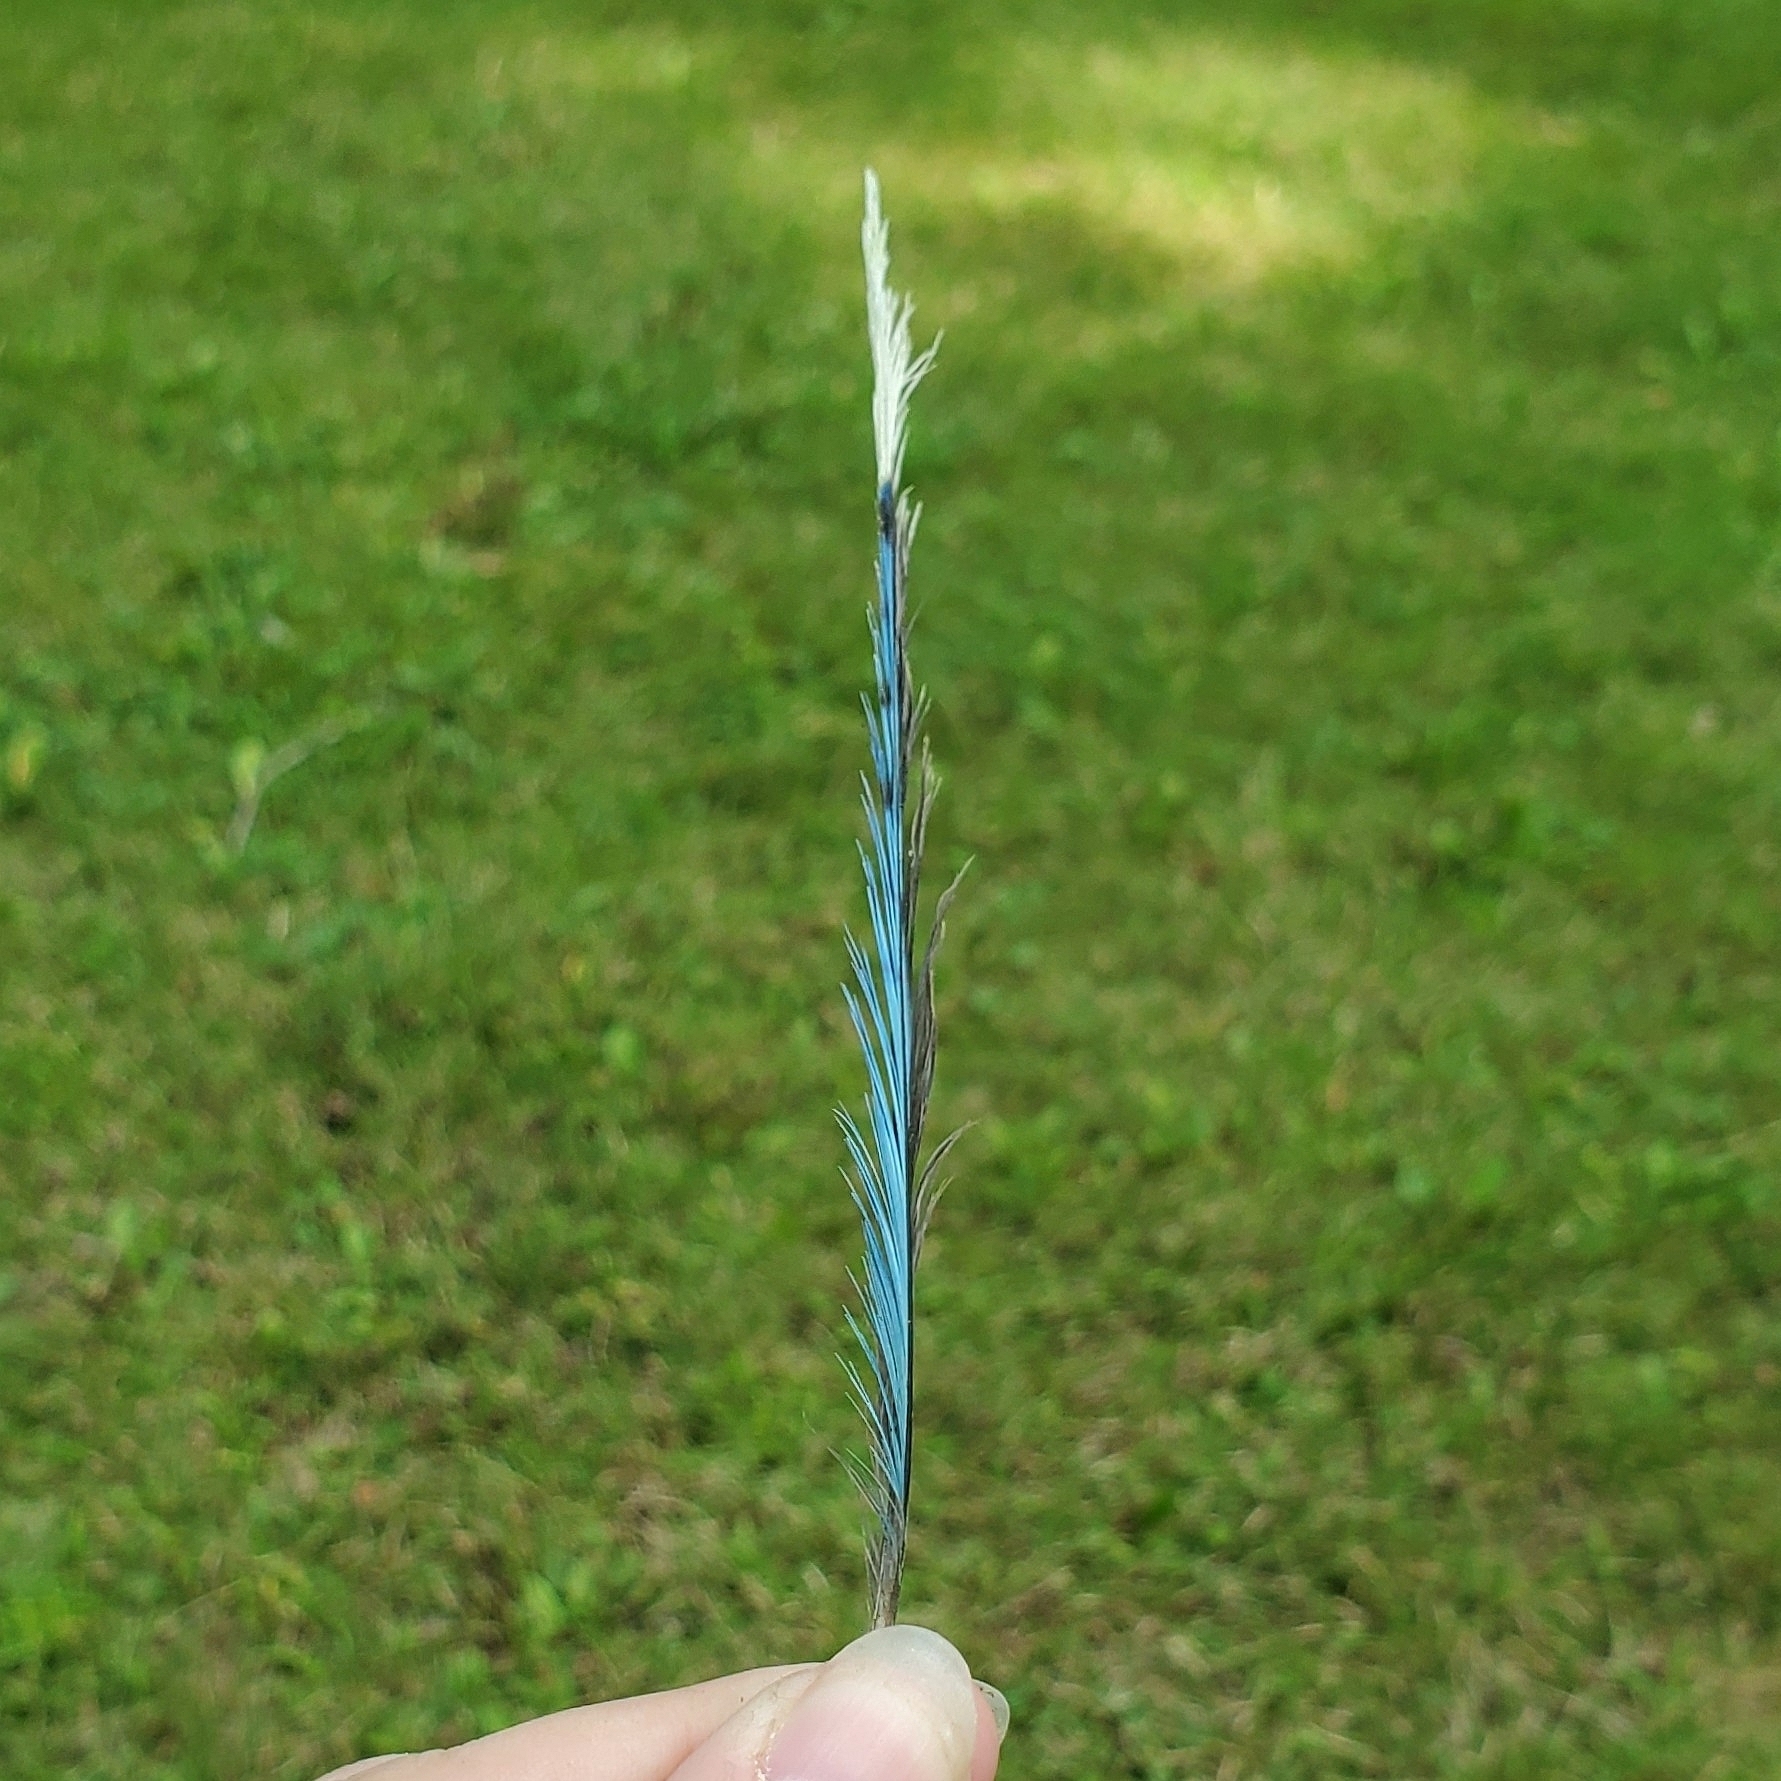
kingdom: Animalia
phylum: Chordata
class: Aves
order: Passeriformes
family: Corvidae
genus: Cyanocitta
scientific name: Cyanocitta cristata
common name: Blue jay
